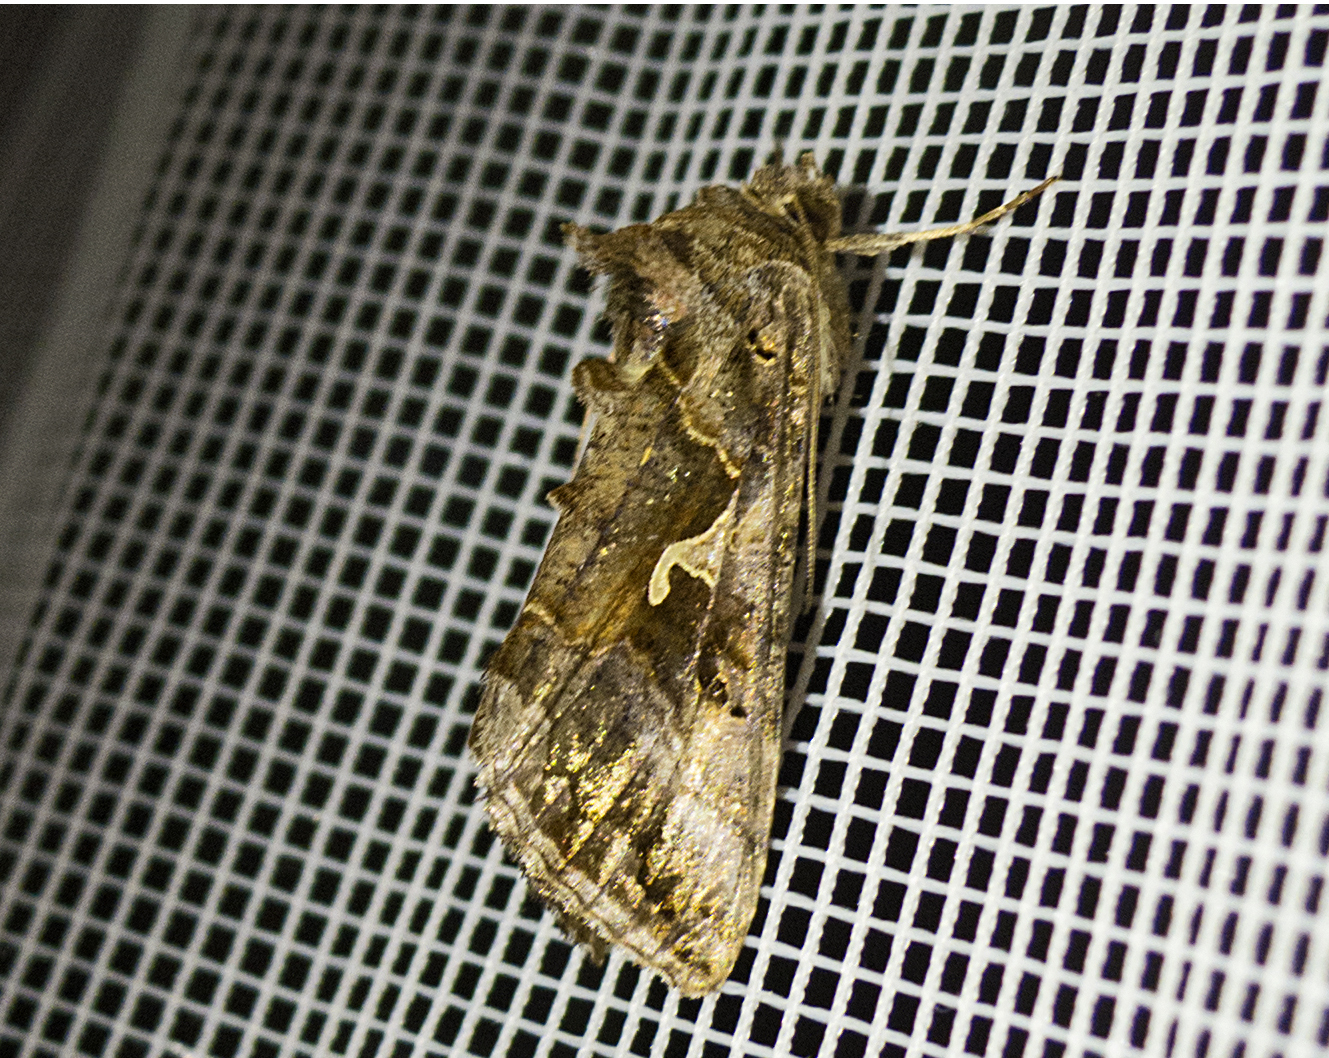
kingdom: Animalia
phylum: Arthropoda
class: Insecta
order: Lepidoptera
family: Noctuidae
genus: Autographa
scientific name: Autographa gamma
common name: Silver y
